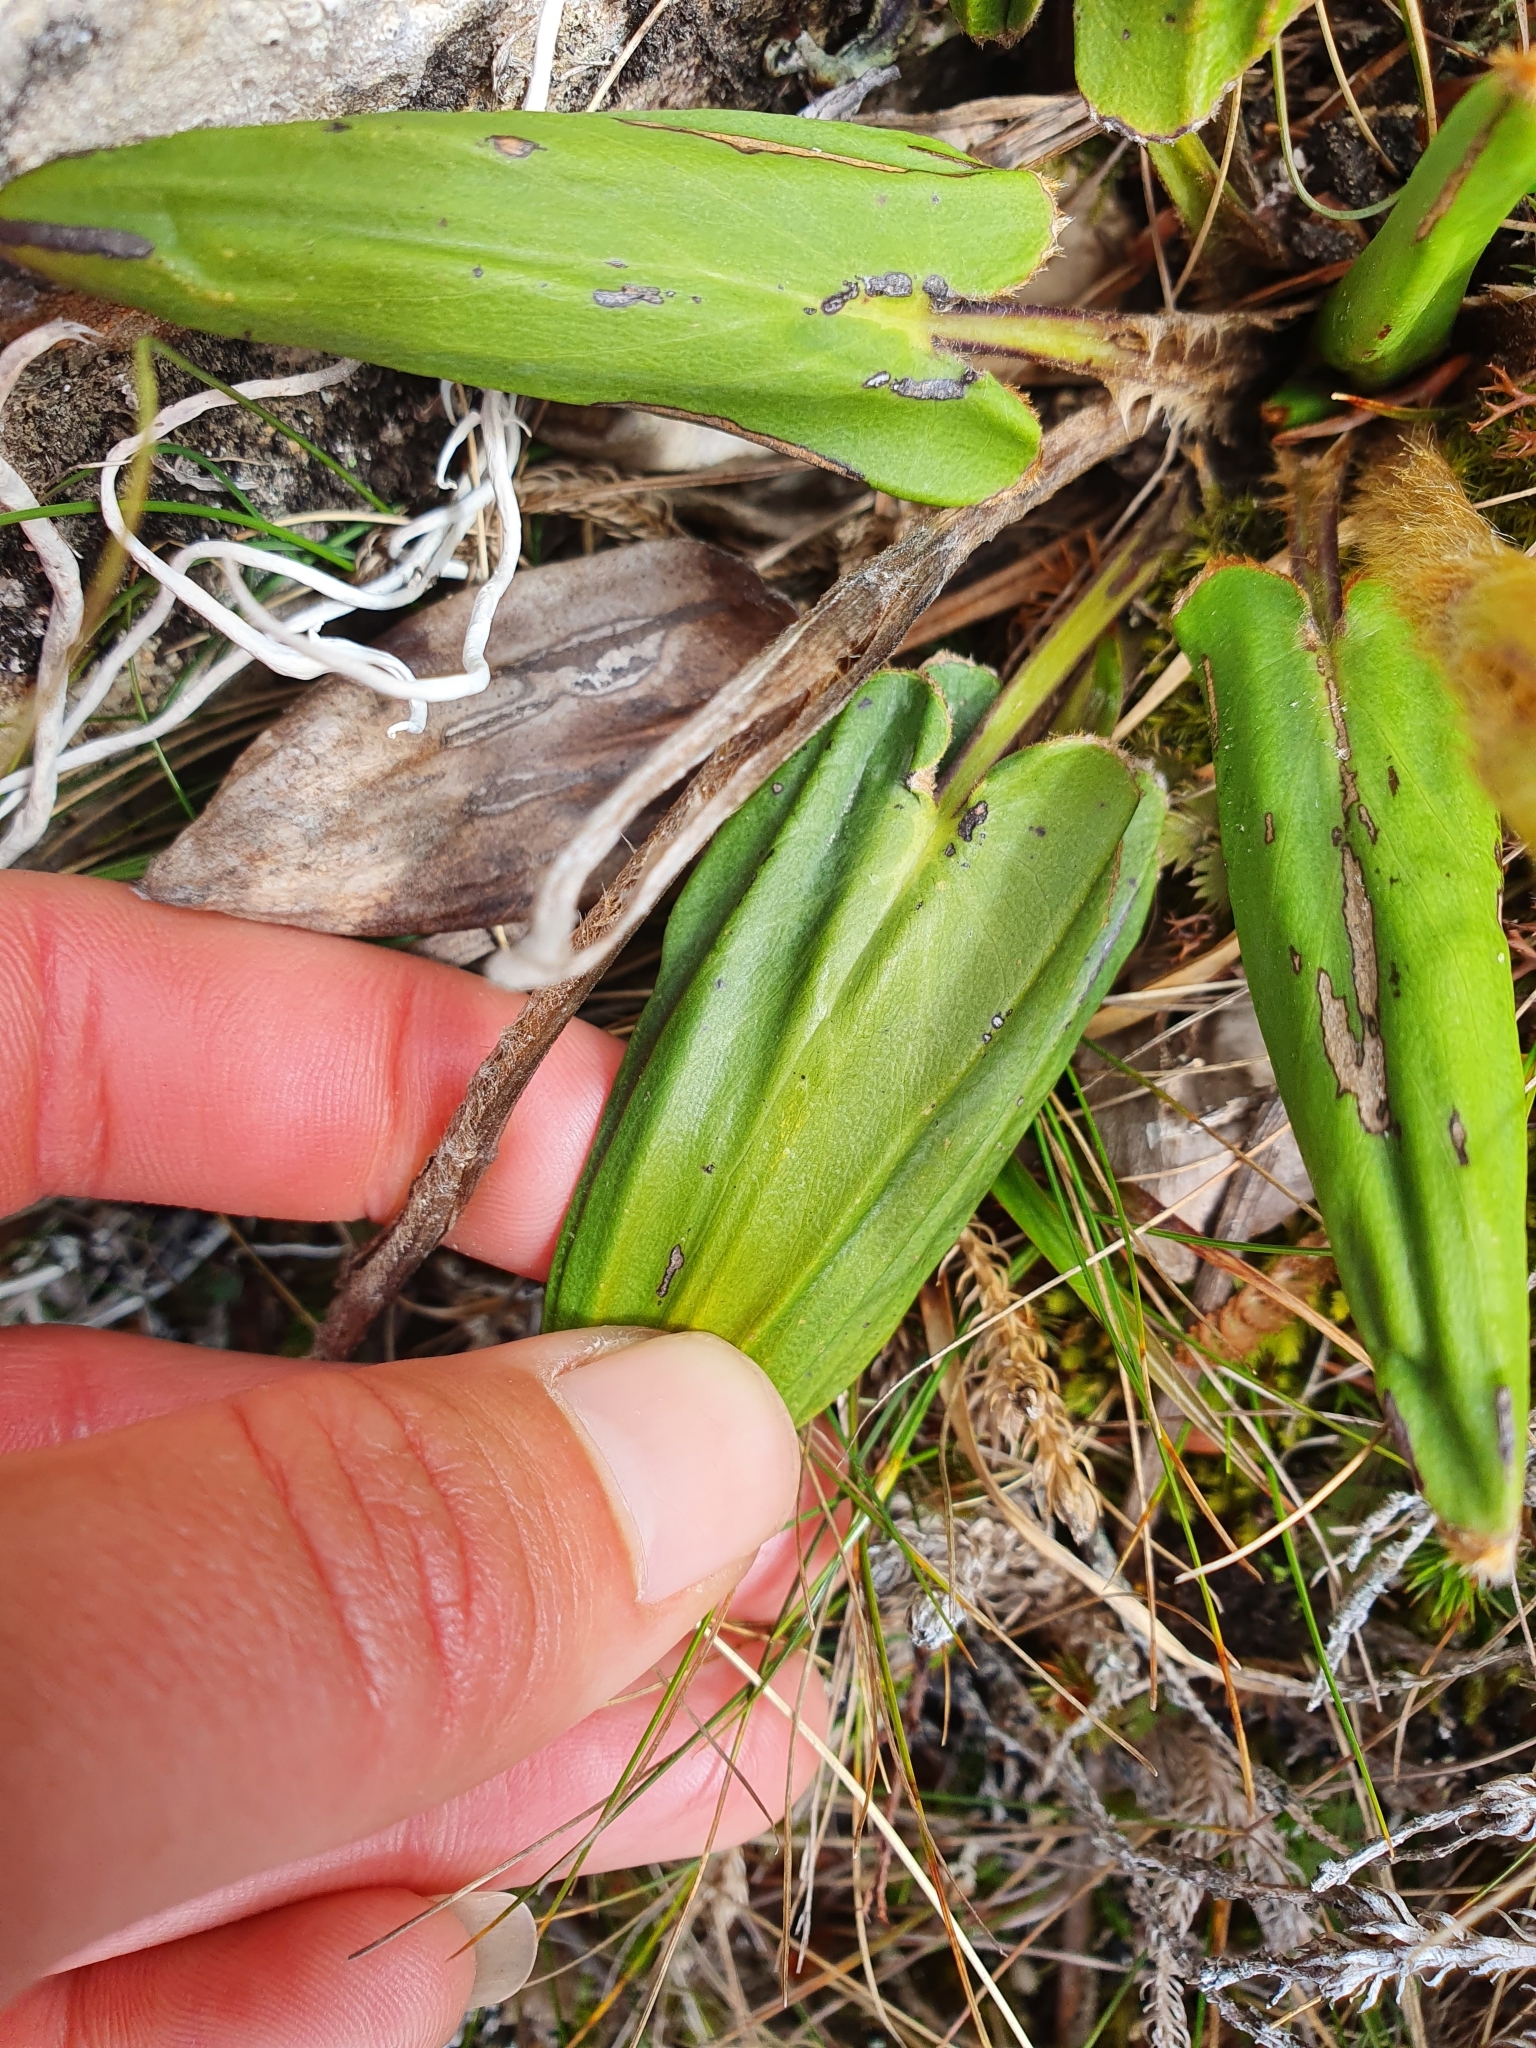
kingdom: Plantae
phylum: Tracheophyta
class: Magnoliopsida
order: Asterales
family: Asteraceae
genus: Celmisia
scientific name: Celmisia cordatifolia
